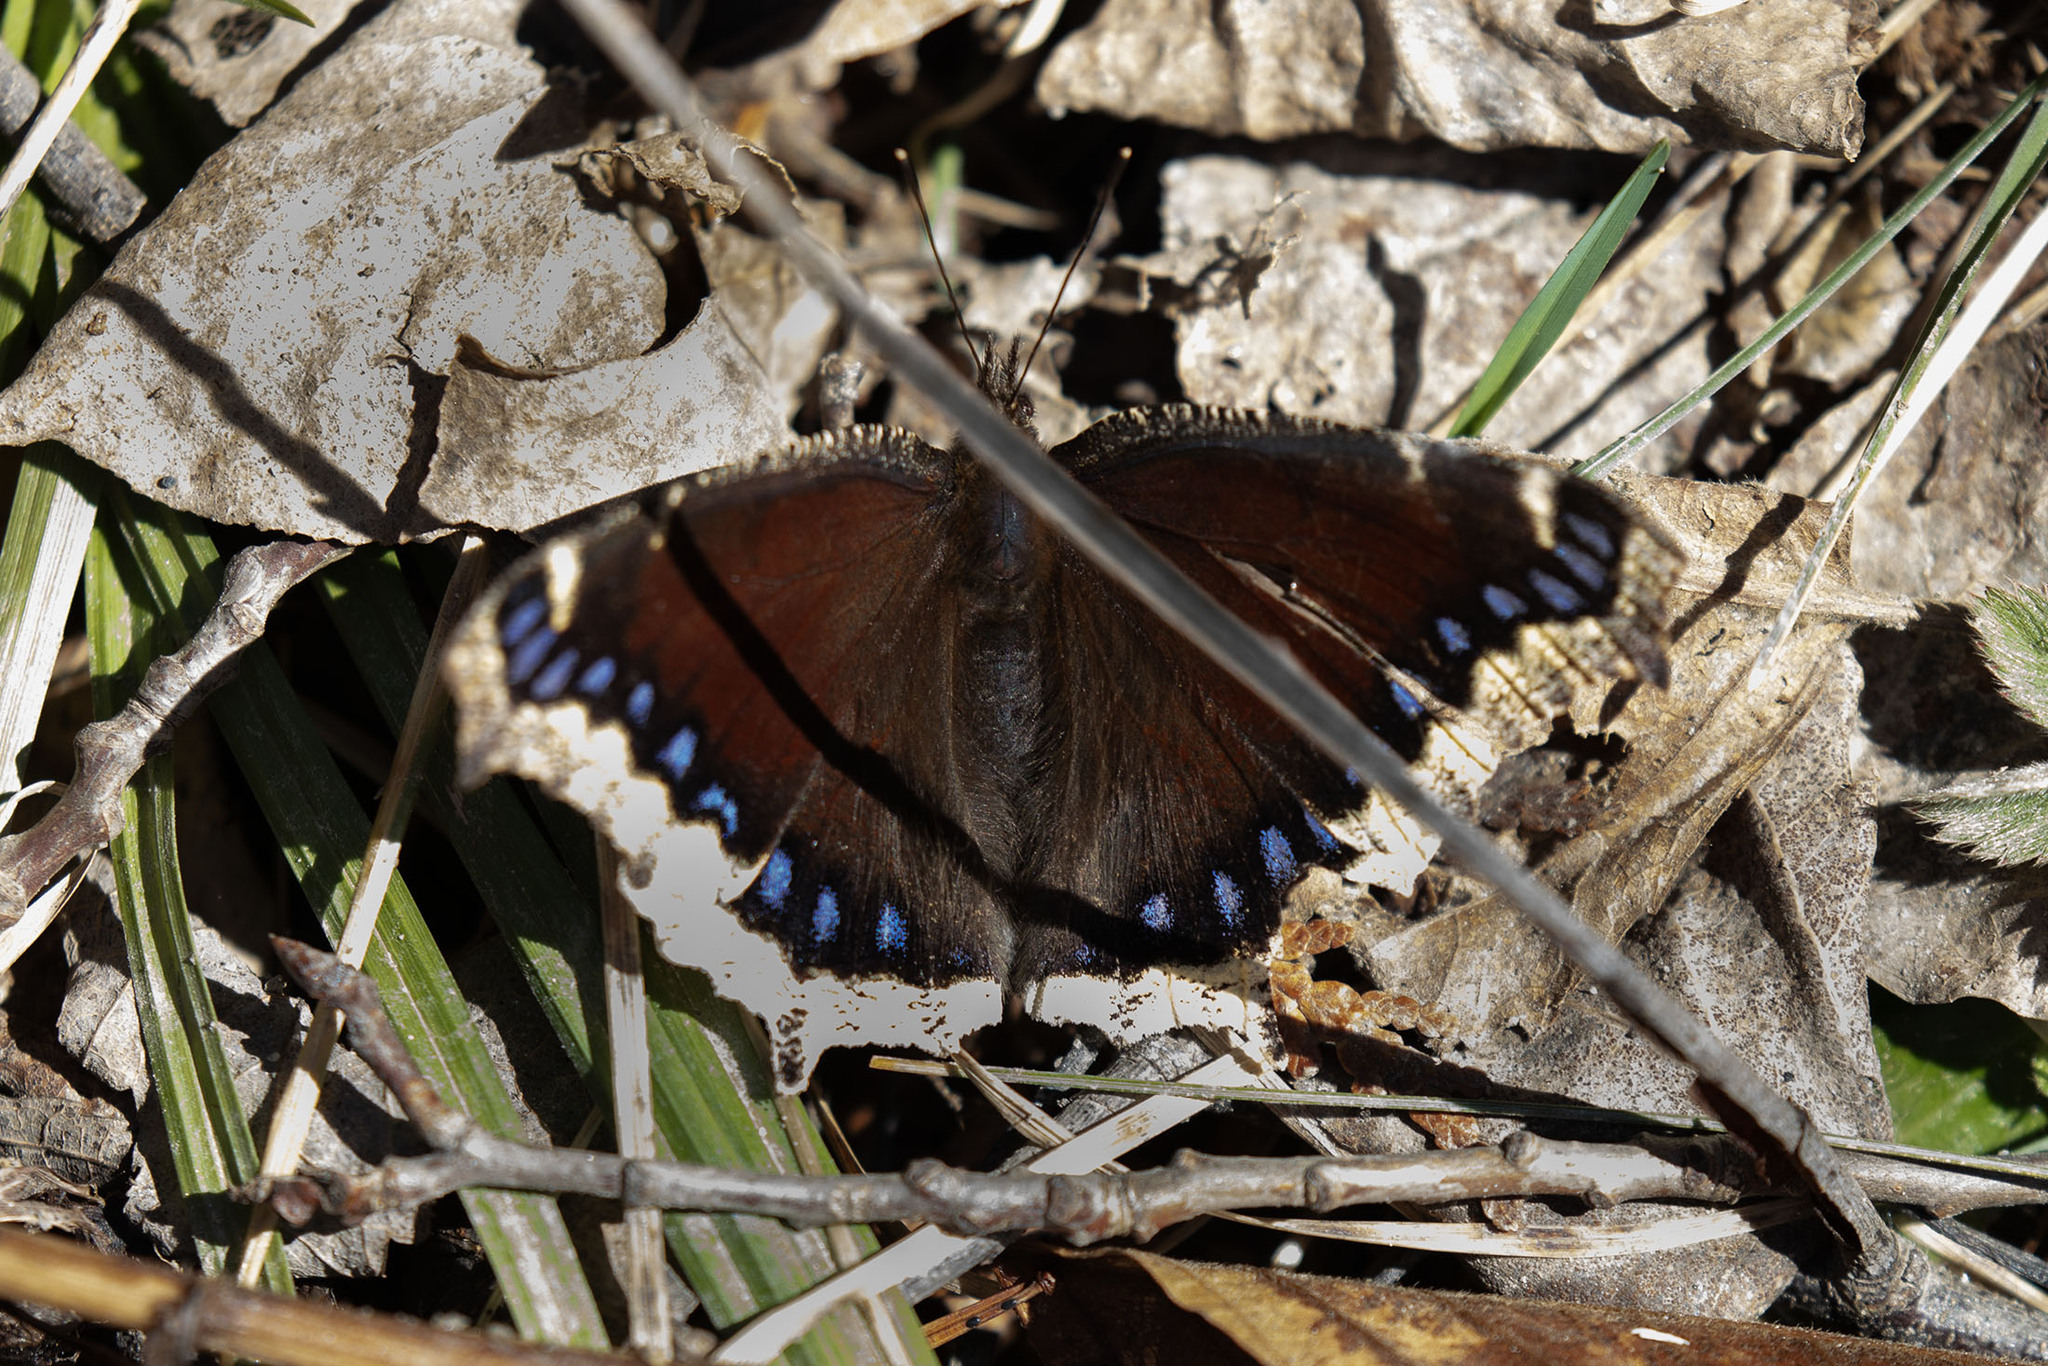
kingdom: Animalia
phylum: Arthropoda
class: Insecta
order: Lepidoptera
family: Nymphalidae
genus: Nymphalis
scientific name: Nymphalis antiopa
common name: Camberwell beauty
